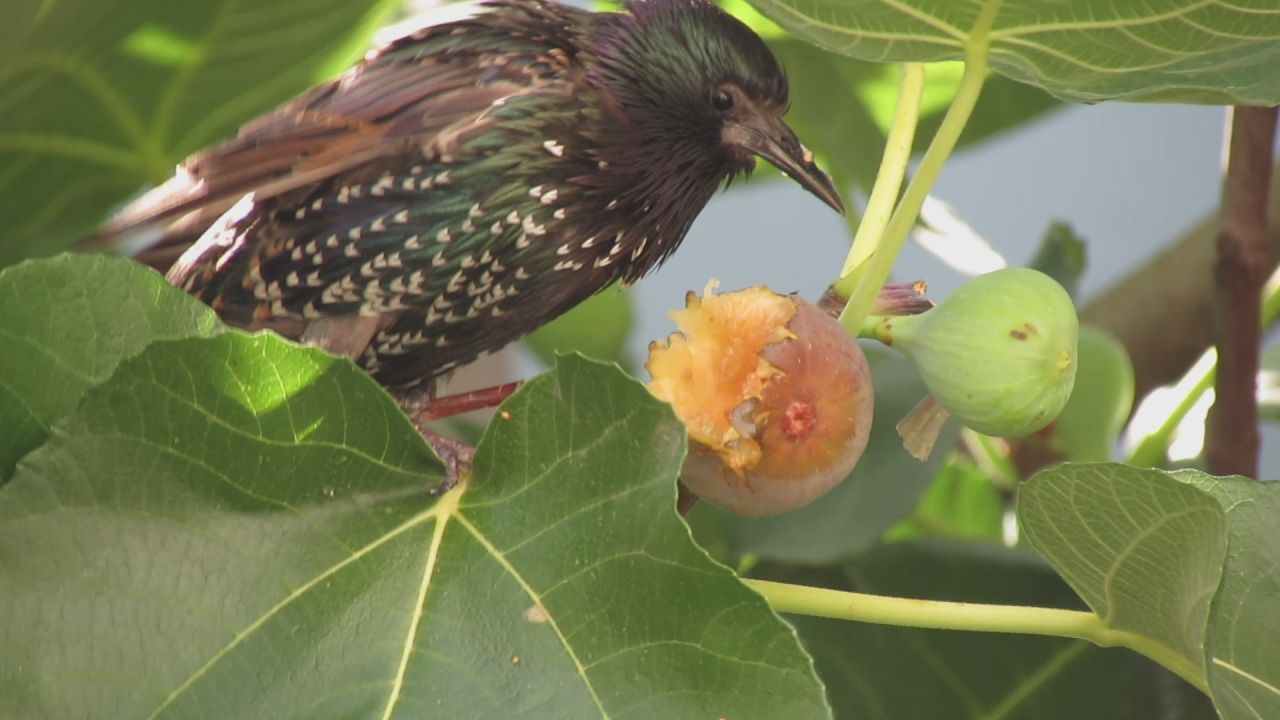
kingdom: Animalia
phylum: Chordata
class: Aves
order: Passeriformes
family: Sturnidae
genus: Sturnus
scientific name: Sturnus vulgaris
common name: Common starling
